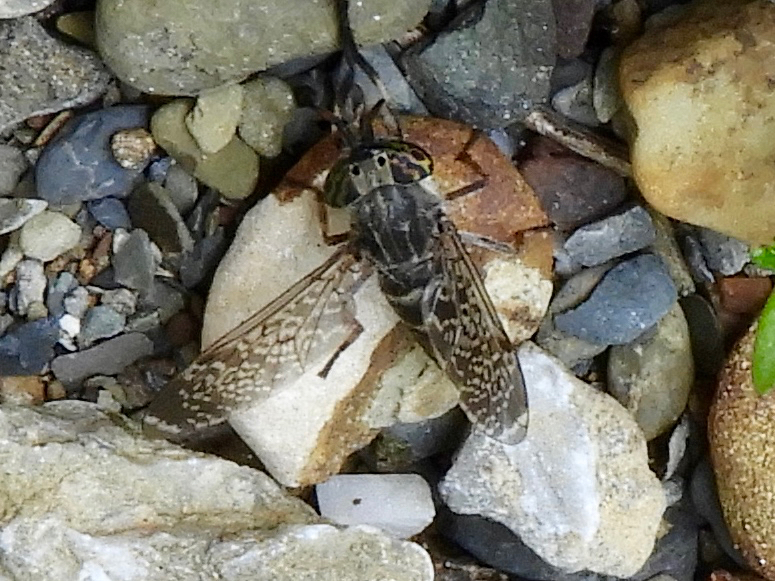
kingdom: Animalia
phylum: Arthropoda
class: Insecta
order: Diptera
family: Tabanidae
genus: Haematopota
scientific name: Haematopota
